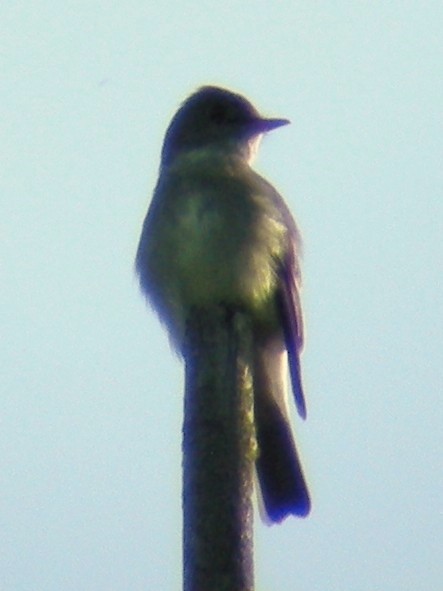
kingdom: Animalia
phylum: Chordata
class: Aves
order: Passeriformes
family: Tyrannidae
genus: Contopus
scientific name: Contopus virens
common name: Eastern wood-pewee
